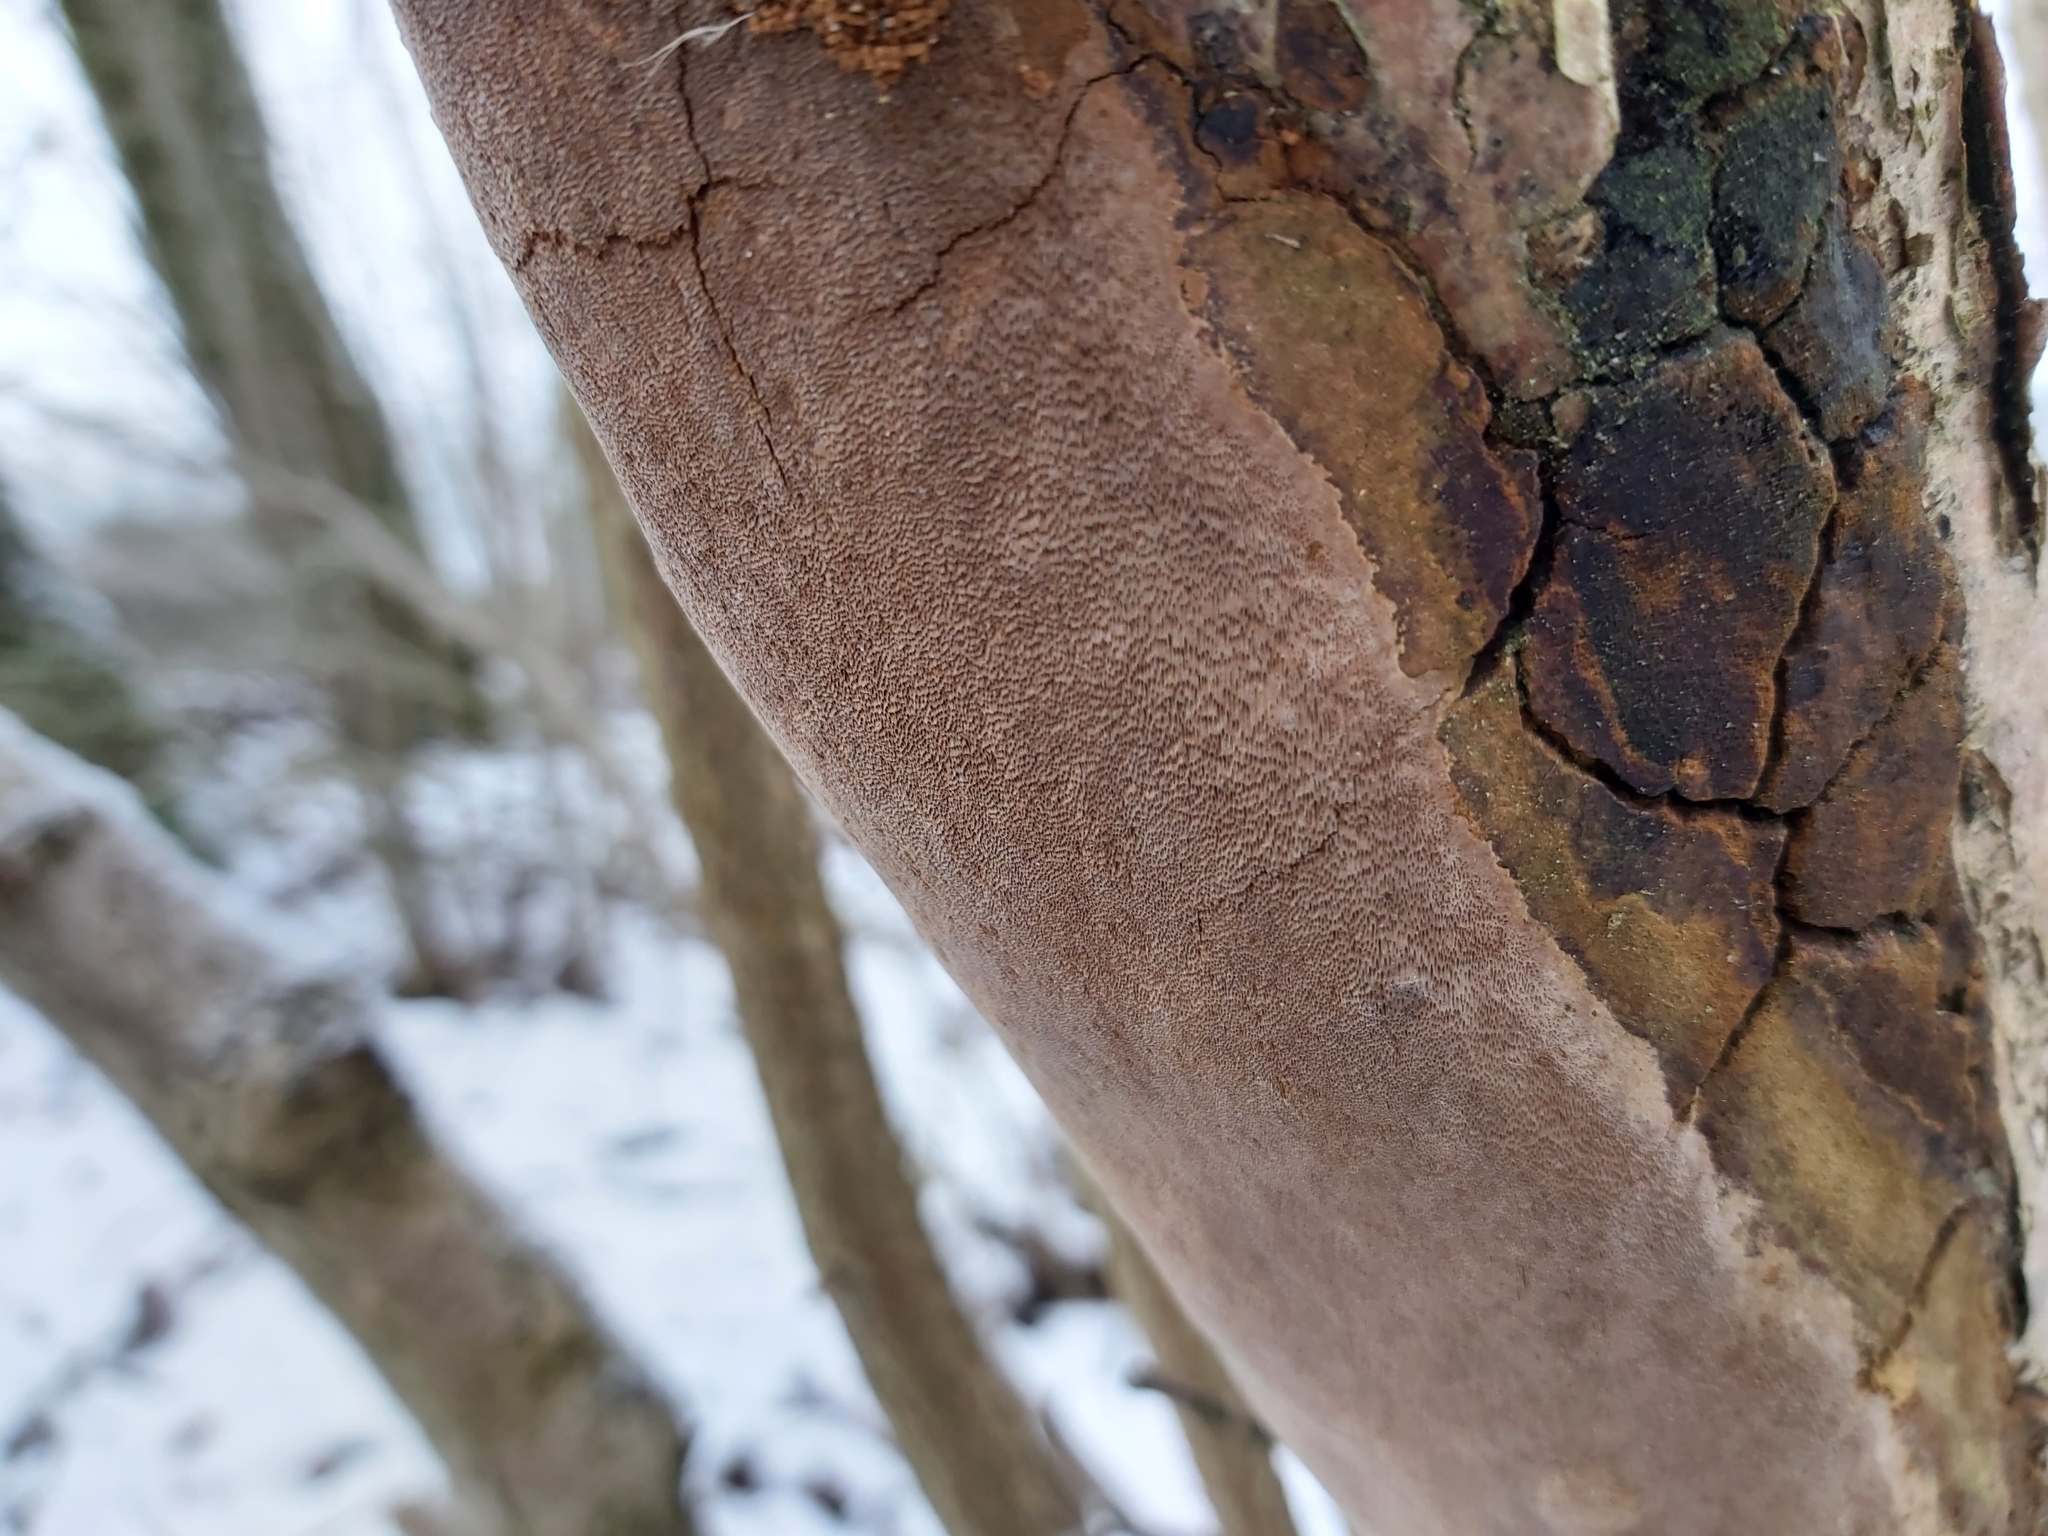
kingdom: Fungi
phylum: Basidiomycota
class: Agaricomycetes
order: Hymenochaetales
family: Hymenochaetaceae
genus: Fomitiporia
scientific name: Fomitiporia punctata
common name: Elbowpatch crust
